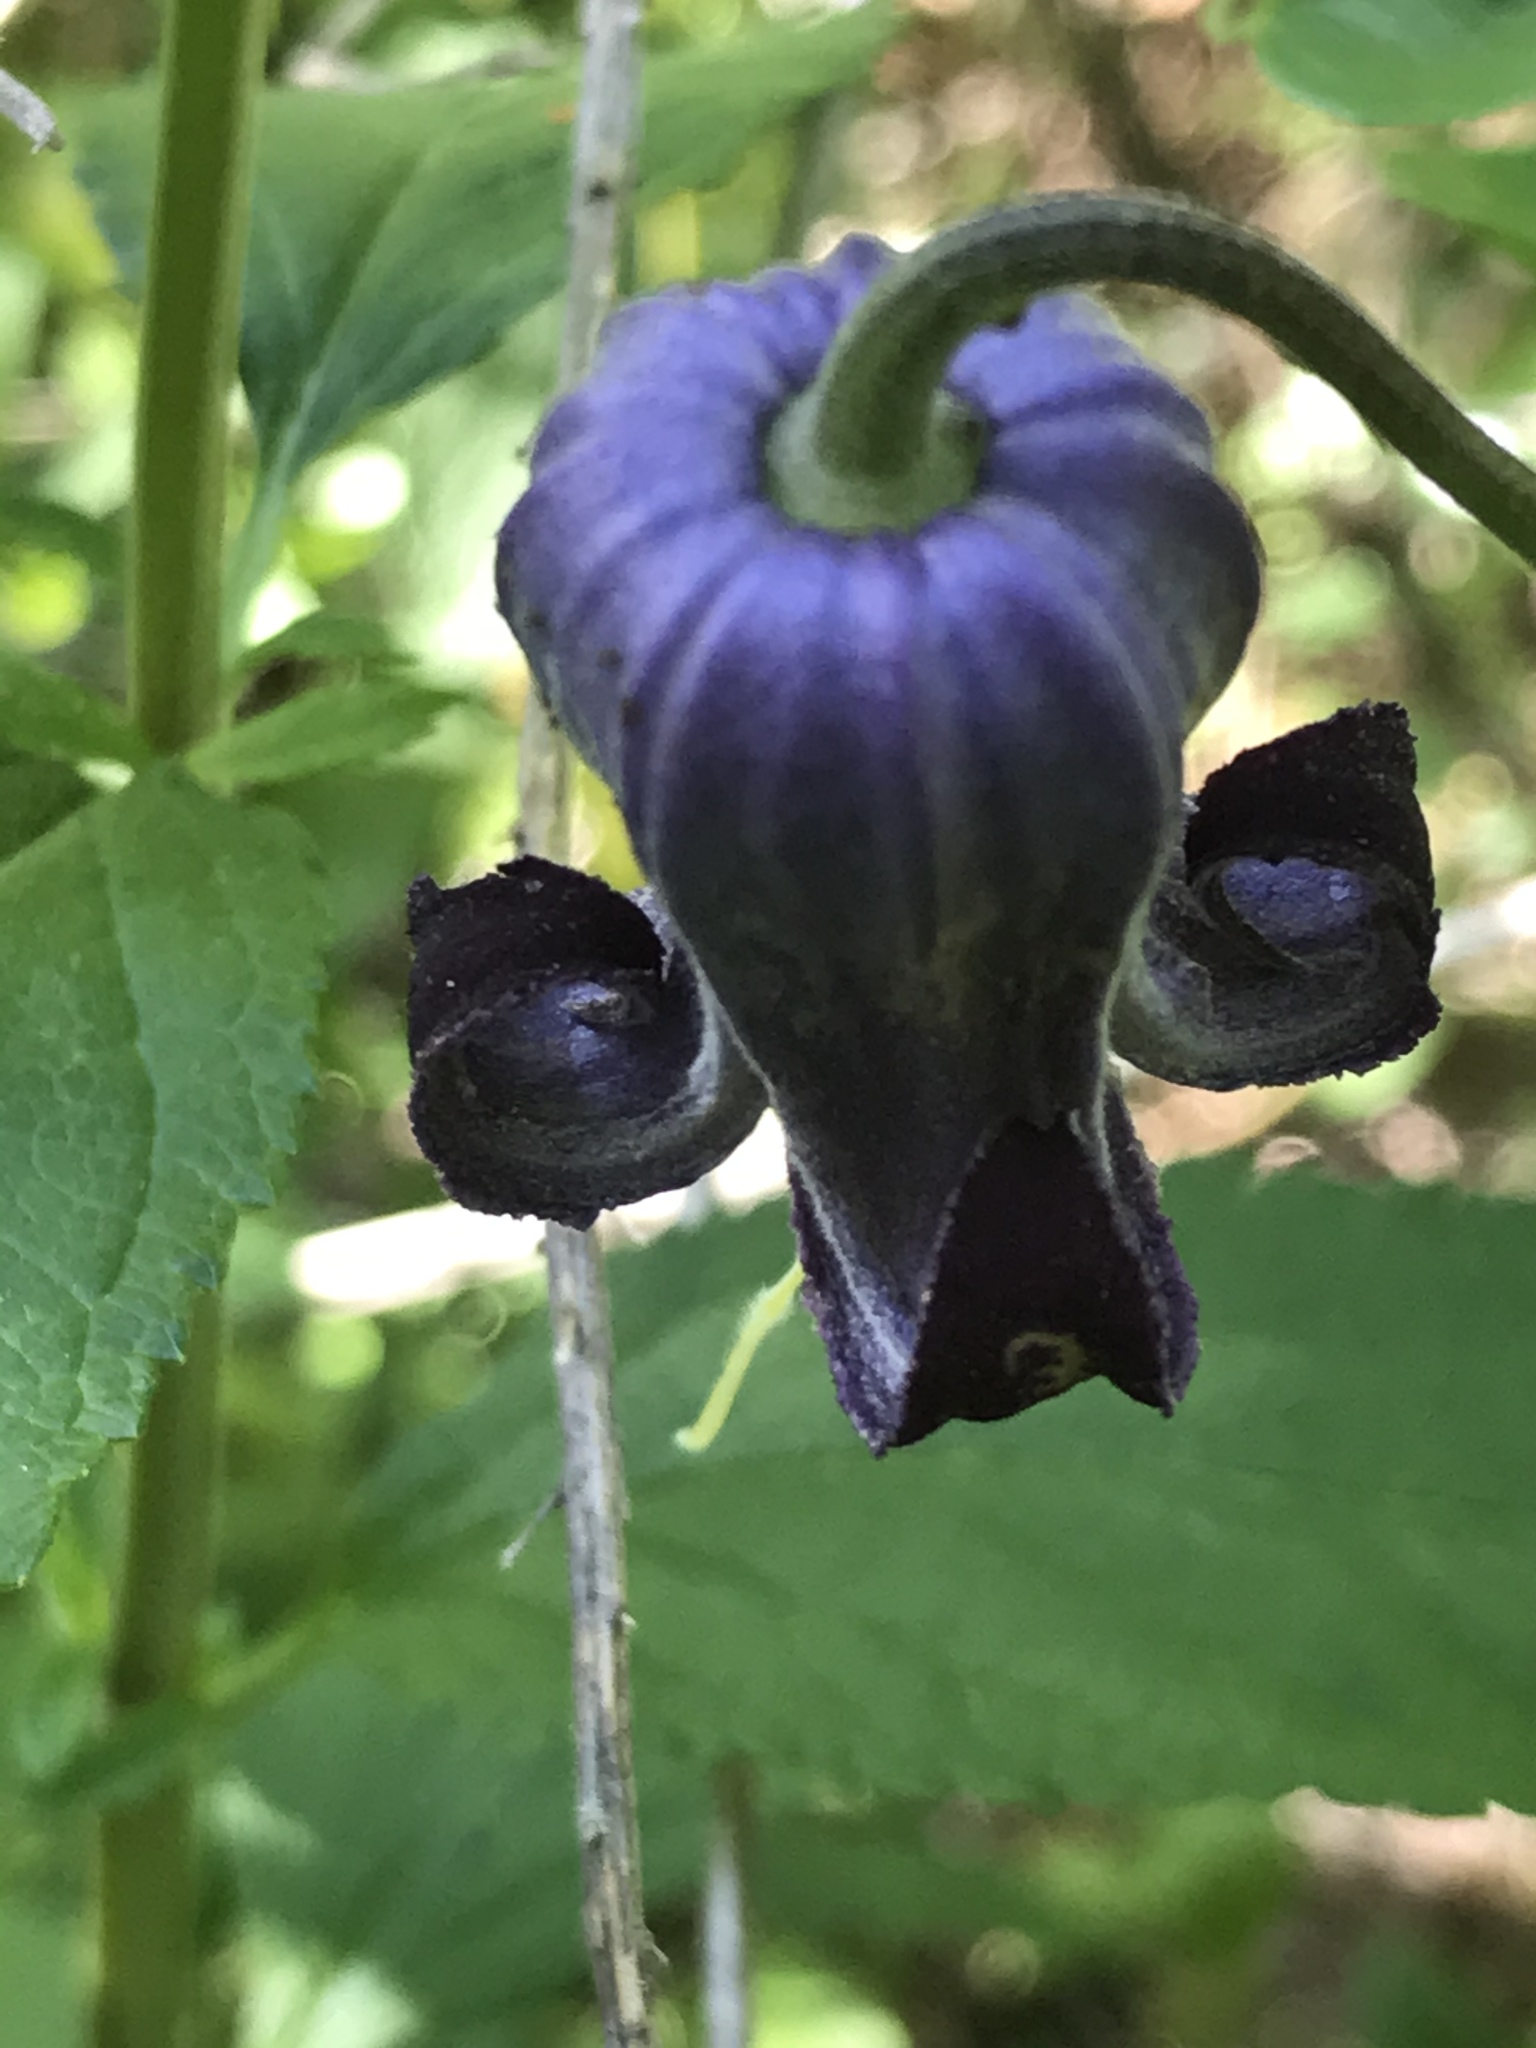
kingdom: Plantae
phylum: Tracheophyta
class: Magnoliopsida
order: Ranunculales
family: Ranunculaceae
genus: Clematis
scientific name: Clematis pitcheri
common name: Bellflower clematis
